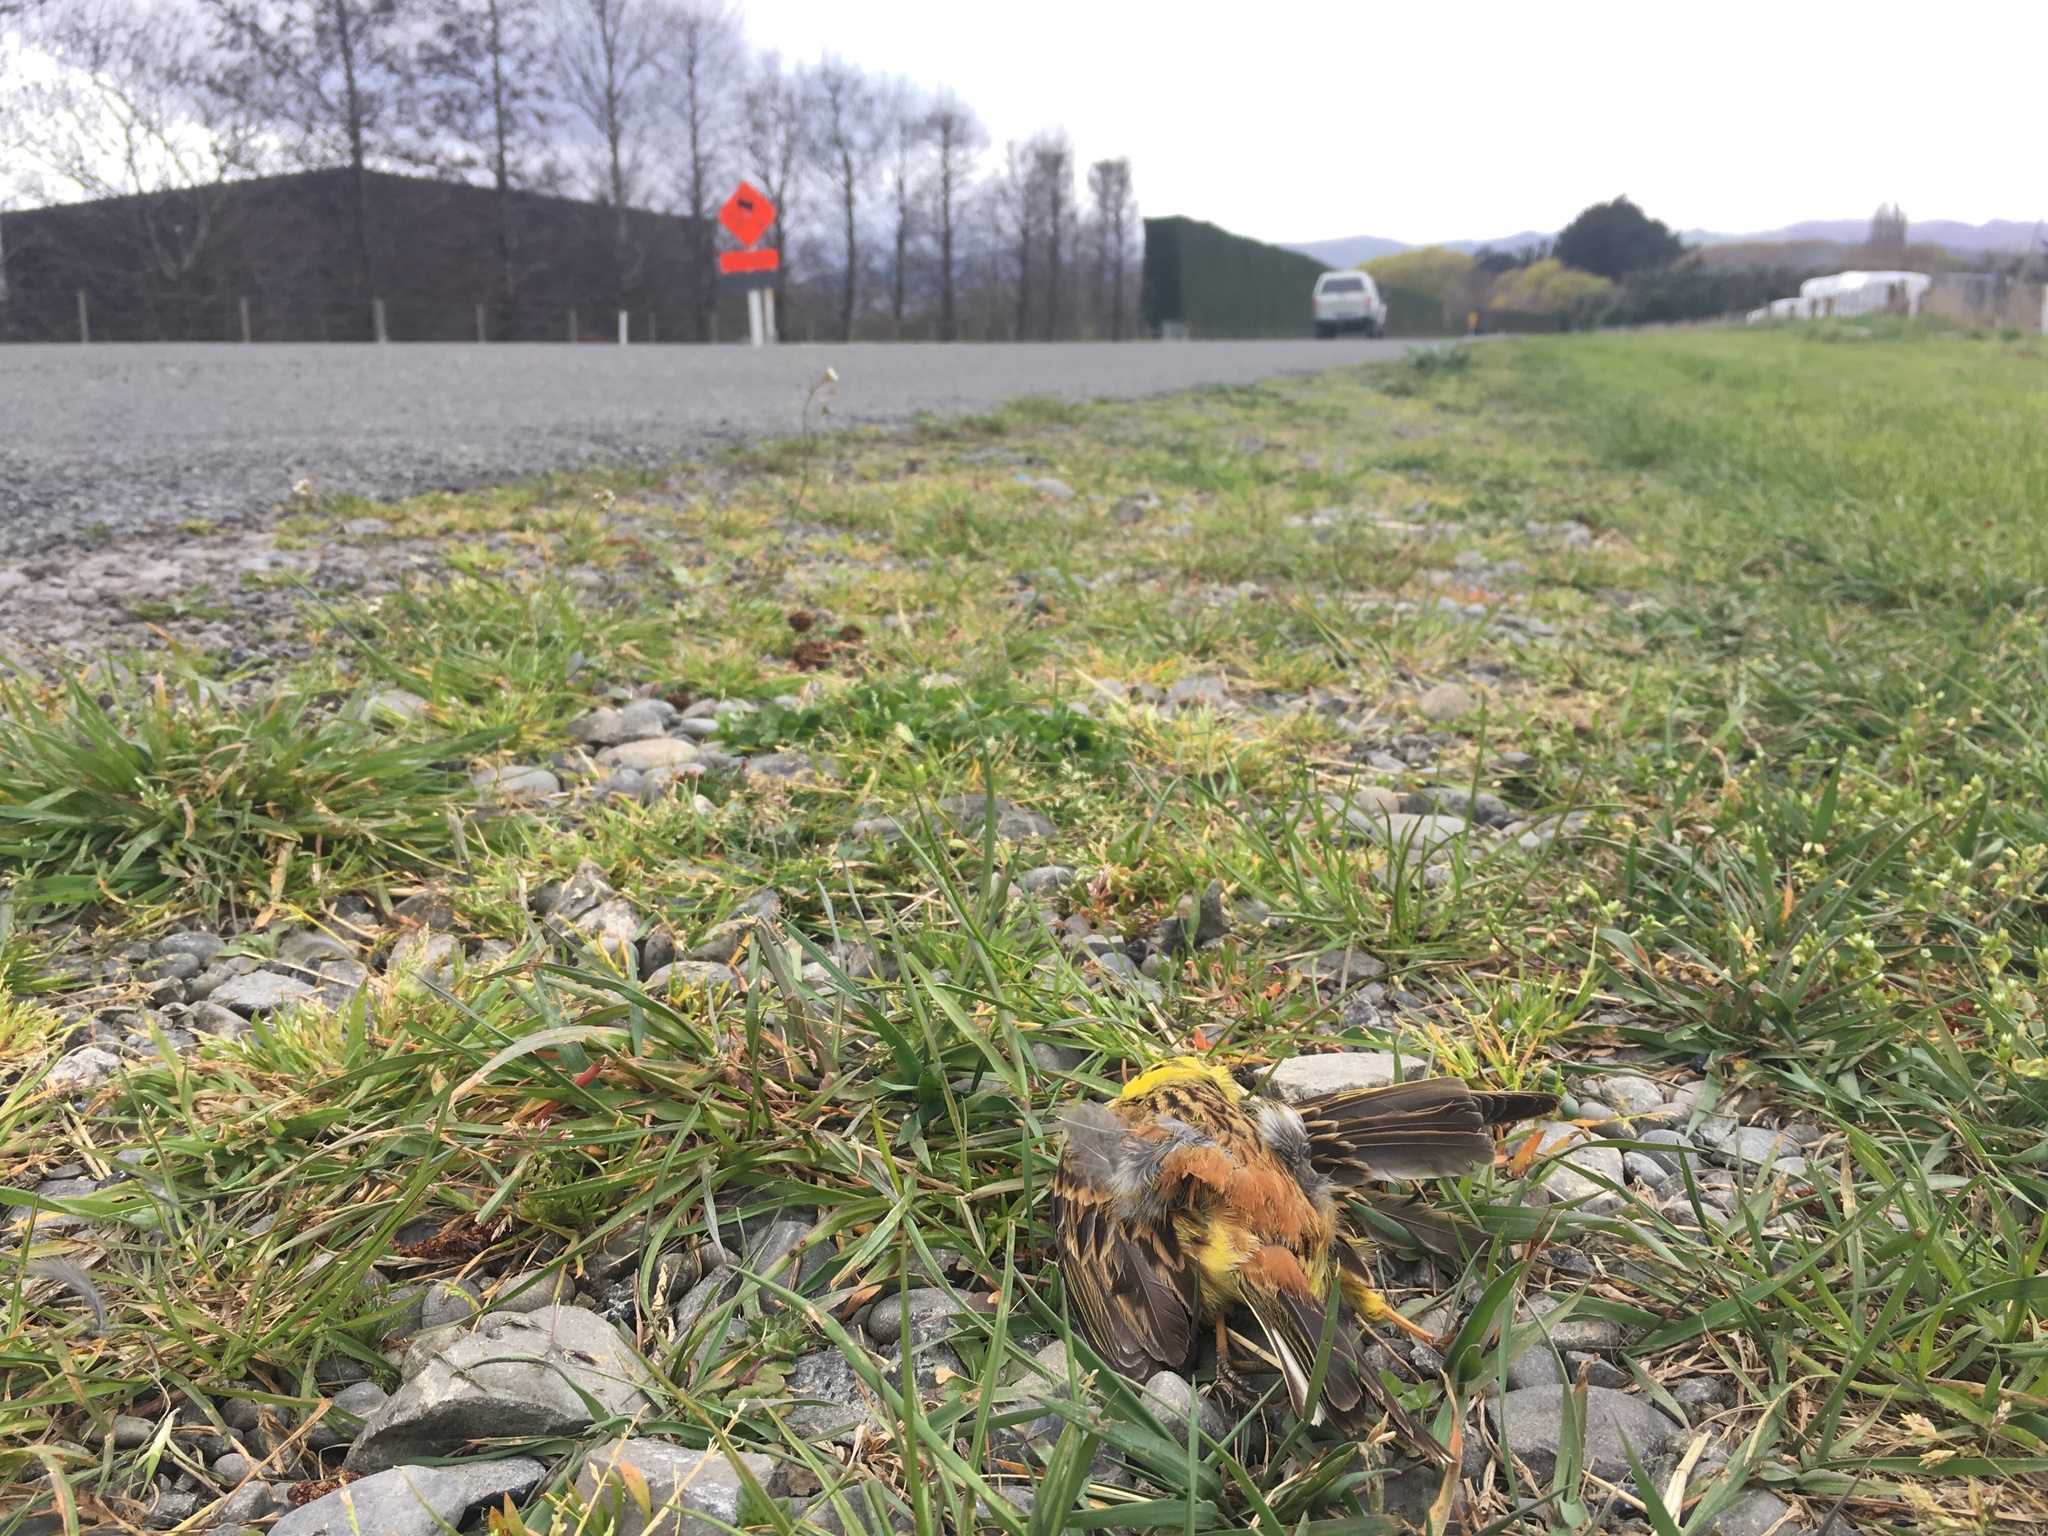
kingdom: Animalia
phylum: Chordata
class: Aves
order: Passeriformes
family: Emberizidae
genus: Emberiza
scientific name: Emberiza citrinella
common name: Yellowhammer
